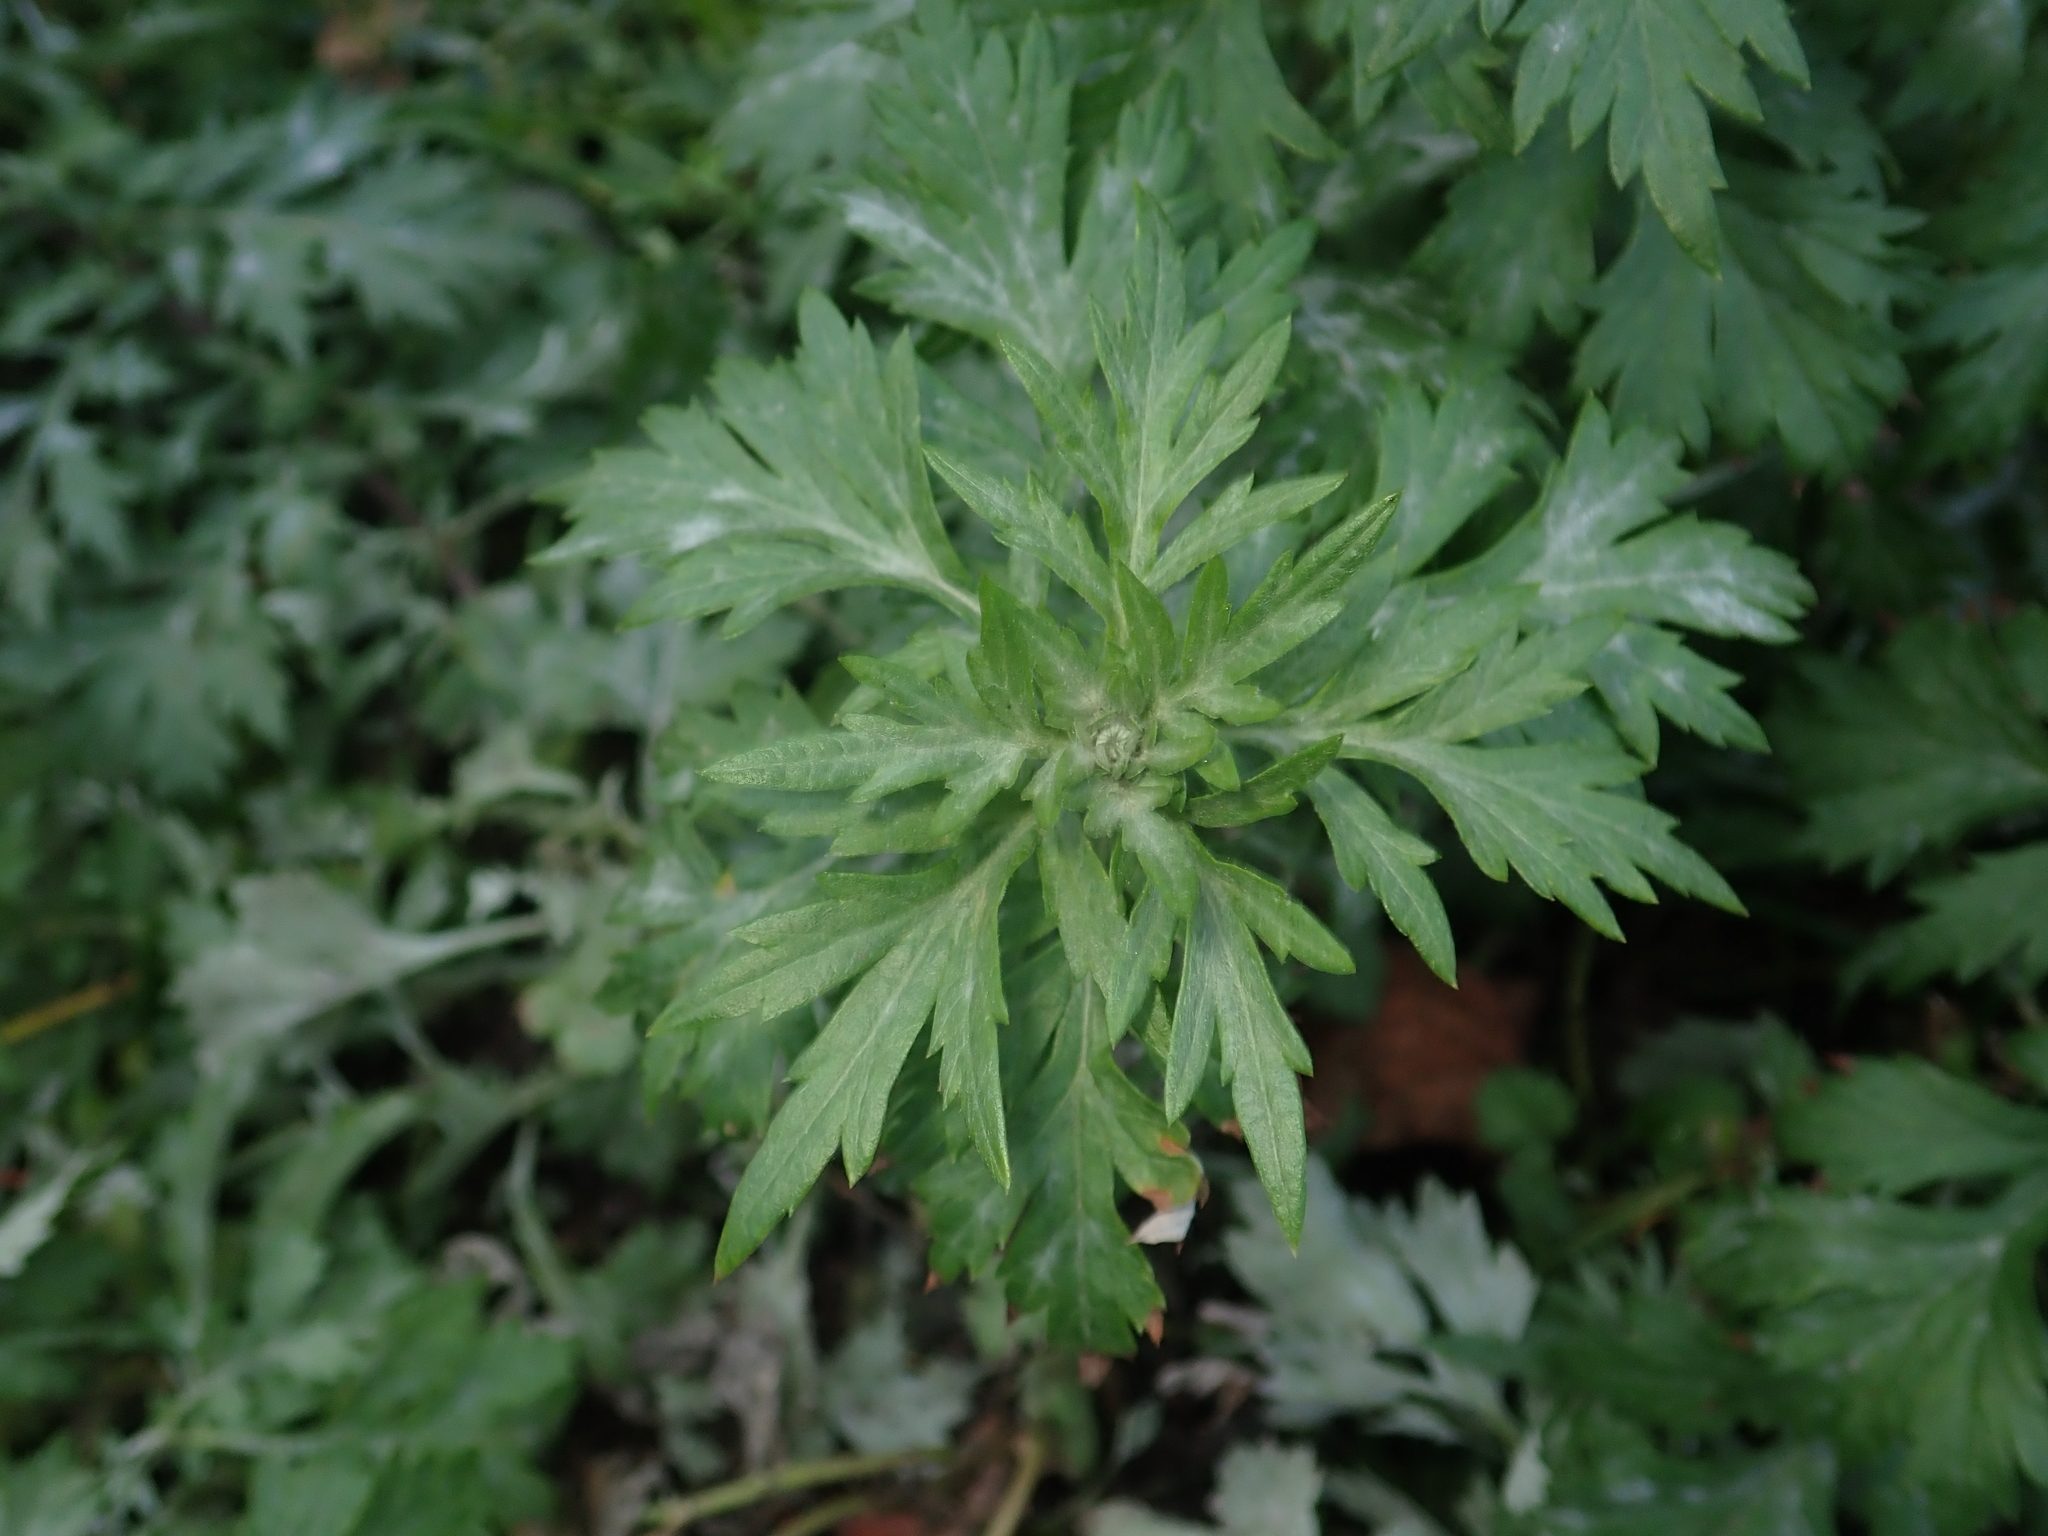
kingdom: Plantae
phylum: Tracheophyta
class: Magnoliopsida
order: Asterales
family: Asteraceae
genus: Artemisia
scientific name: Artemisia vulgaris
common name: Mugwort
